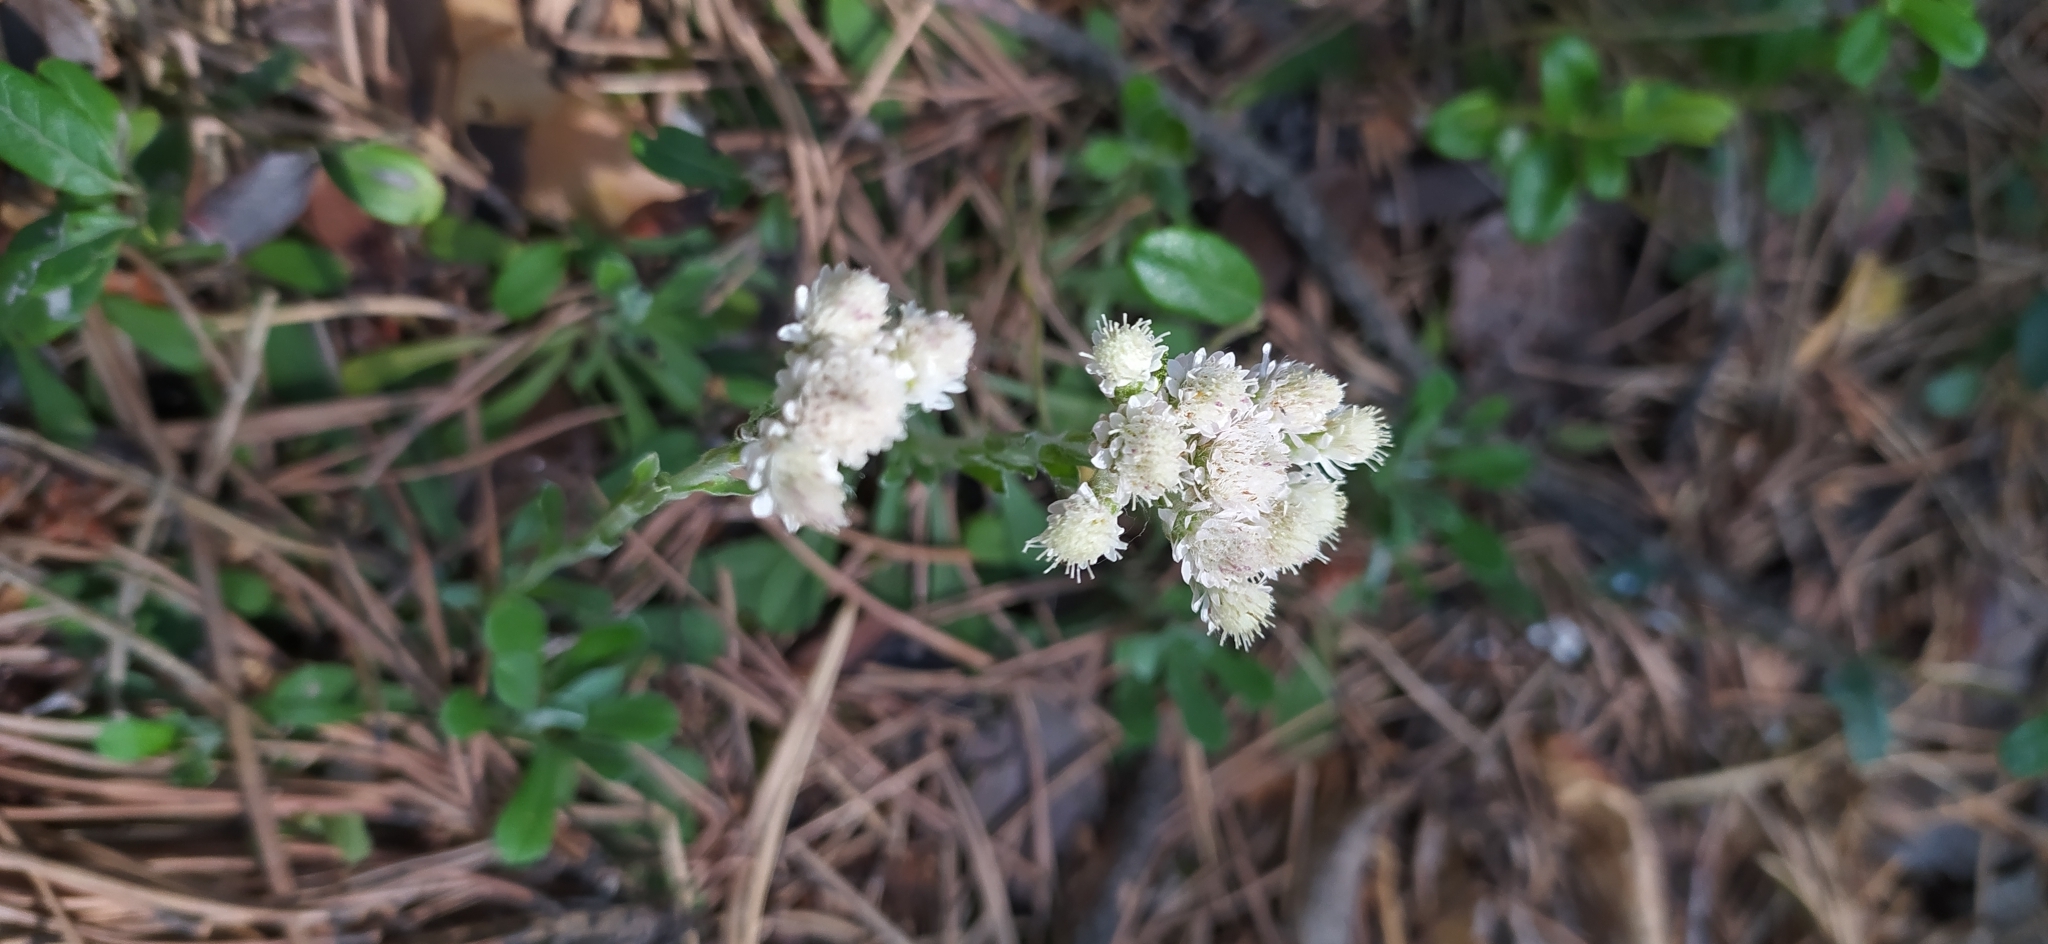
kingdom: Plantae
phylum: Tracheophyta
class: Magnoliopsida
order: Asterales
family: Asteraceae
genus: Antennaria
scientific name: Antennaria dioica
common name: Mountain everlasting
